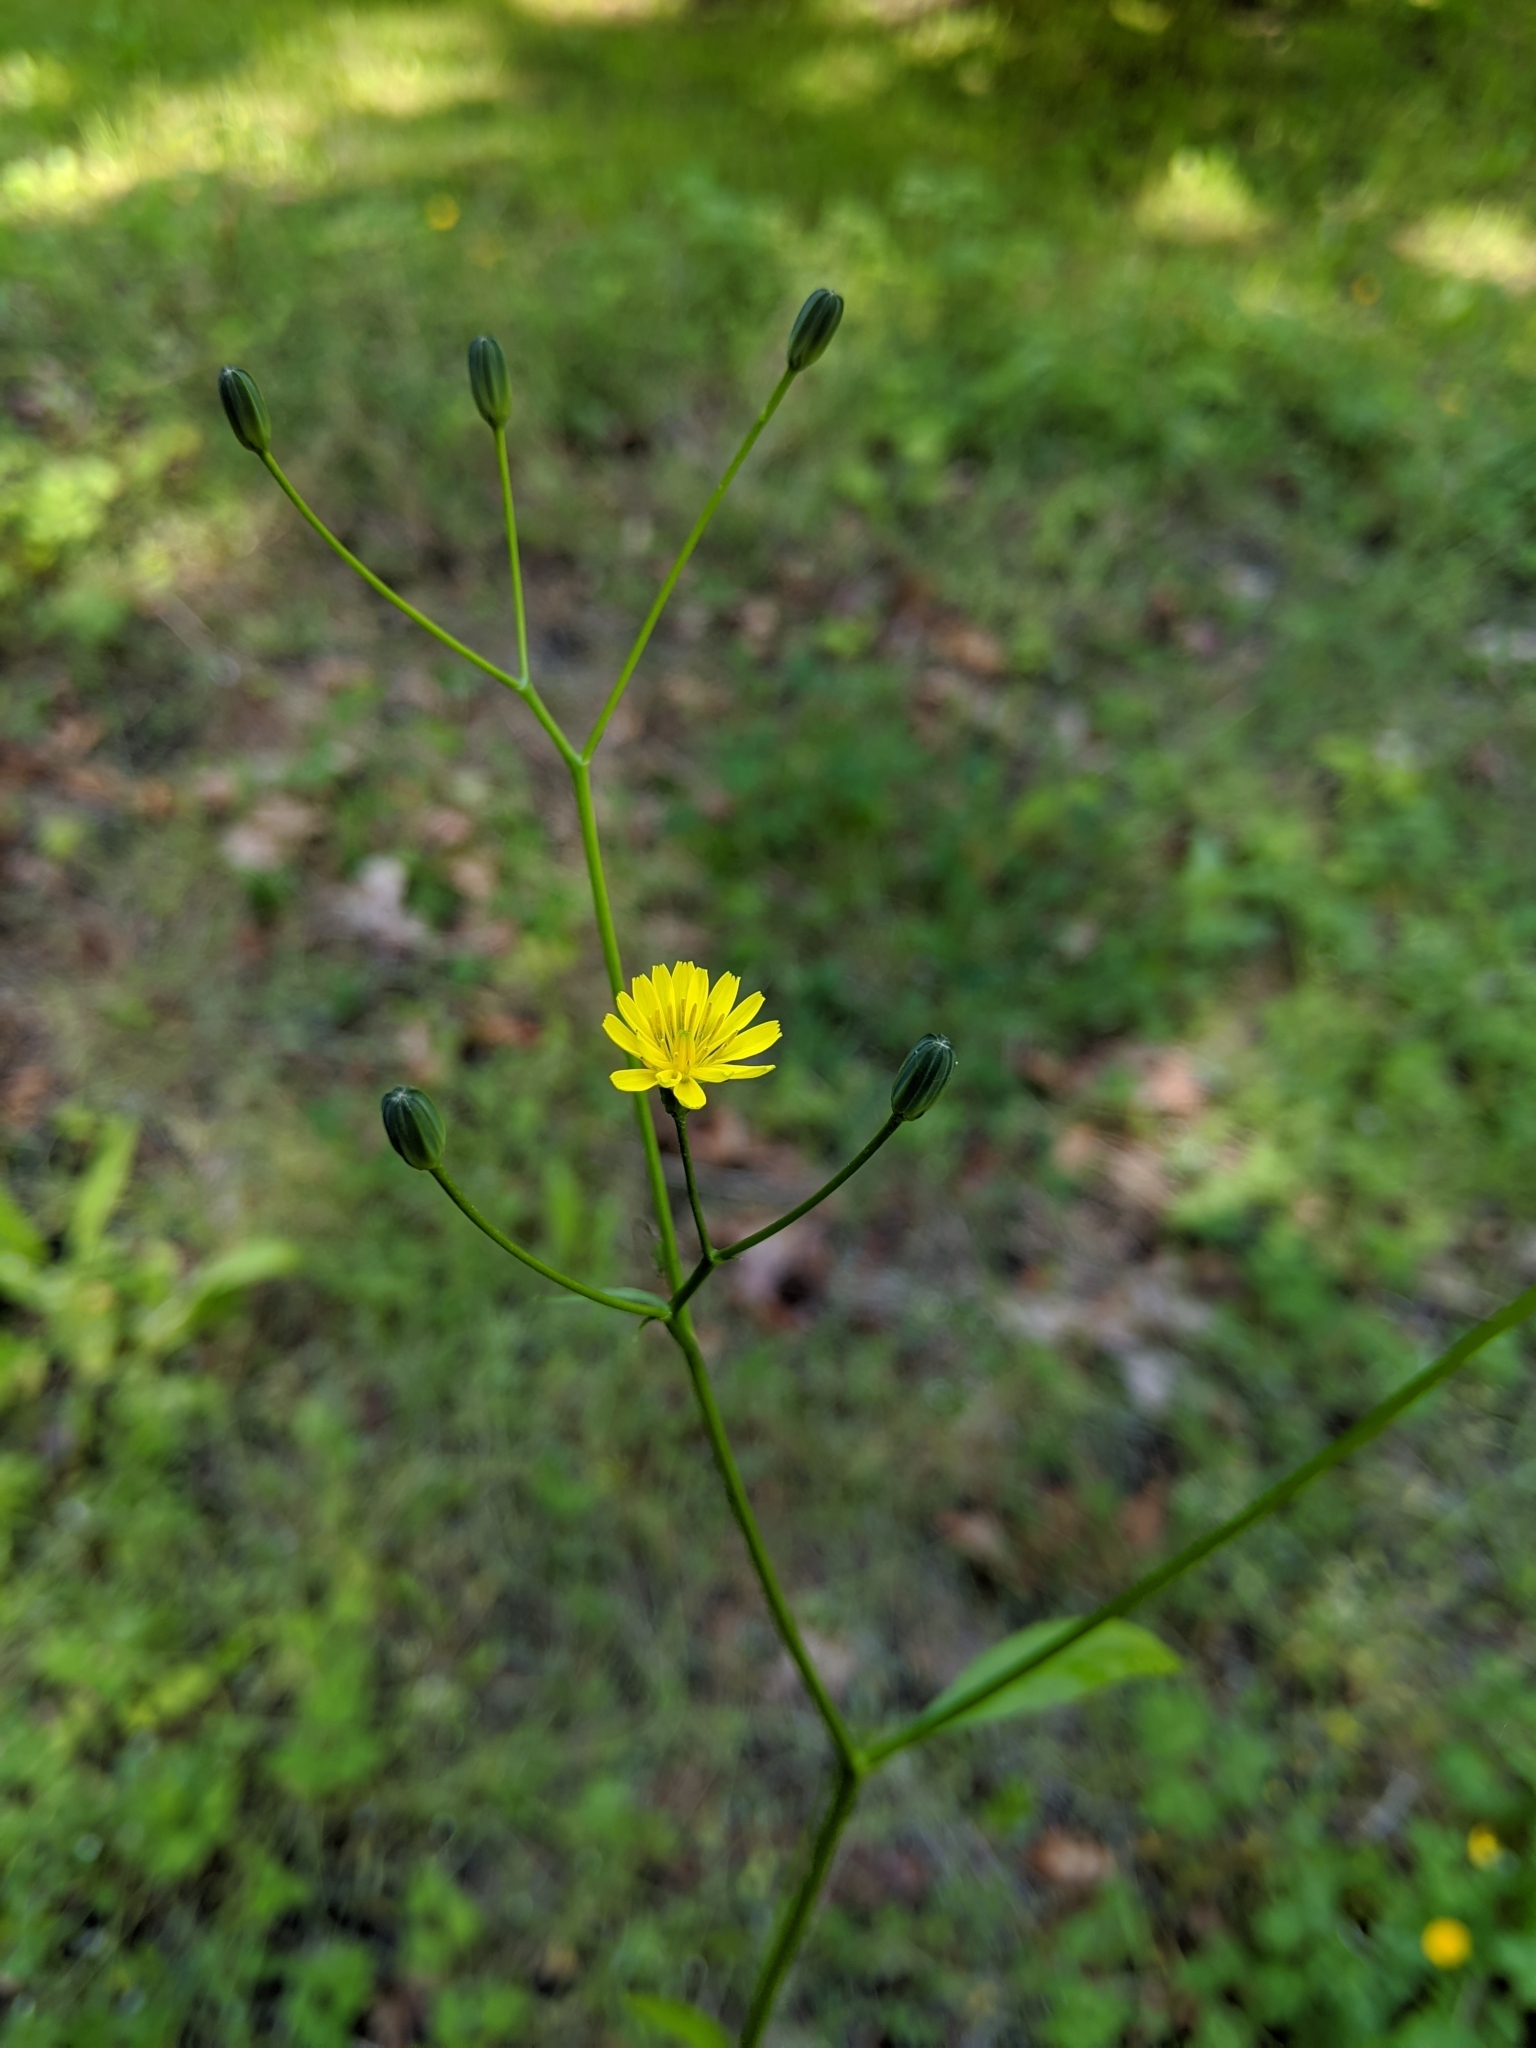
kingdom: Plantae
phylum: Tracheophyta
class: Magnoliopsida
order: Asterales
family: Asteraceae
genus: Lapsana
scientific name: Lapsana communis
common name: Nipplewort
